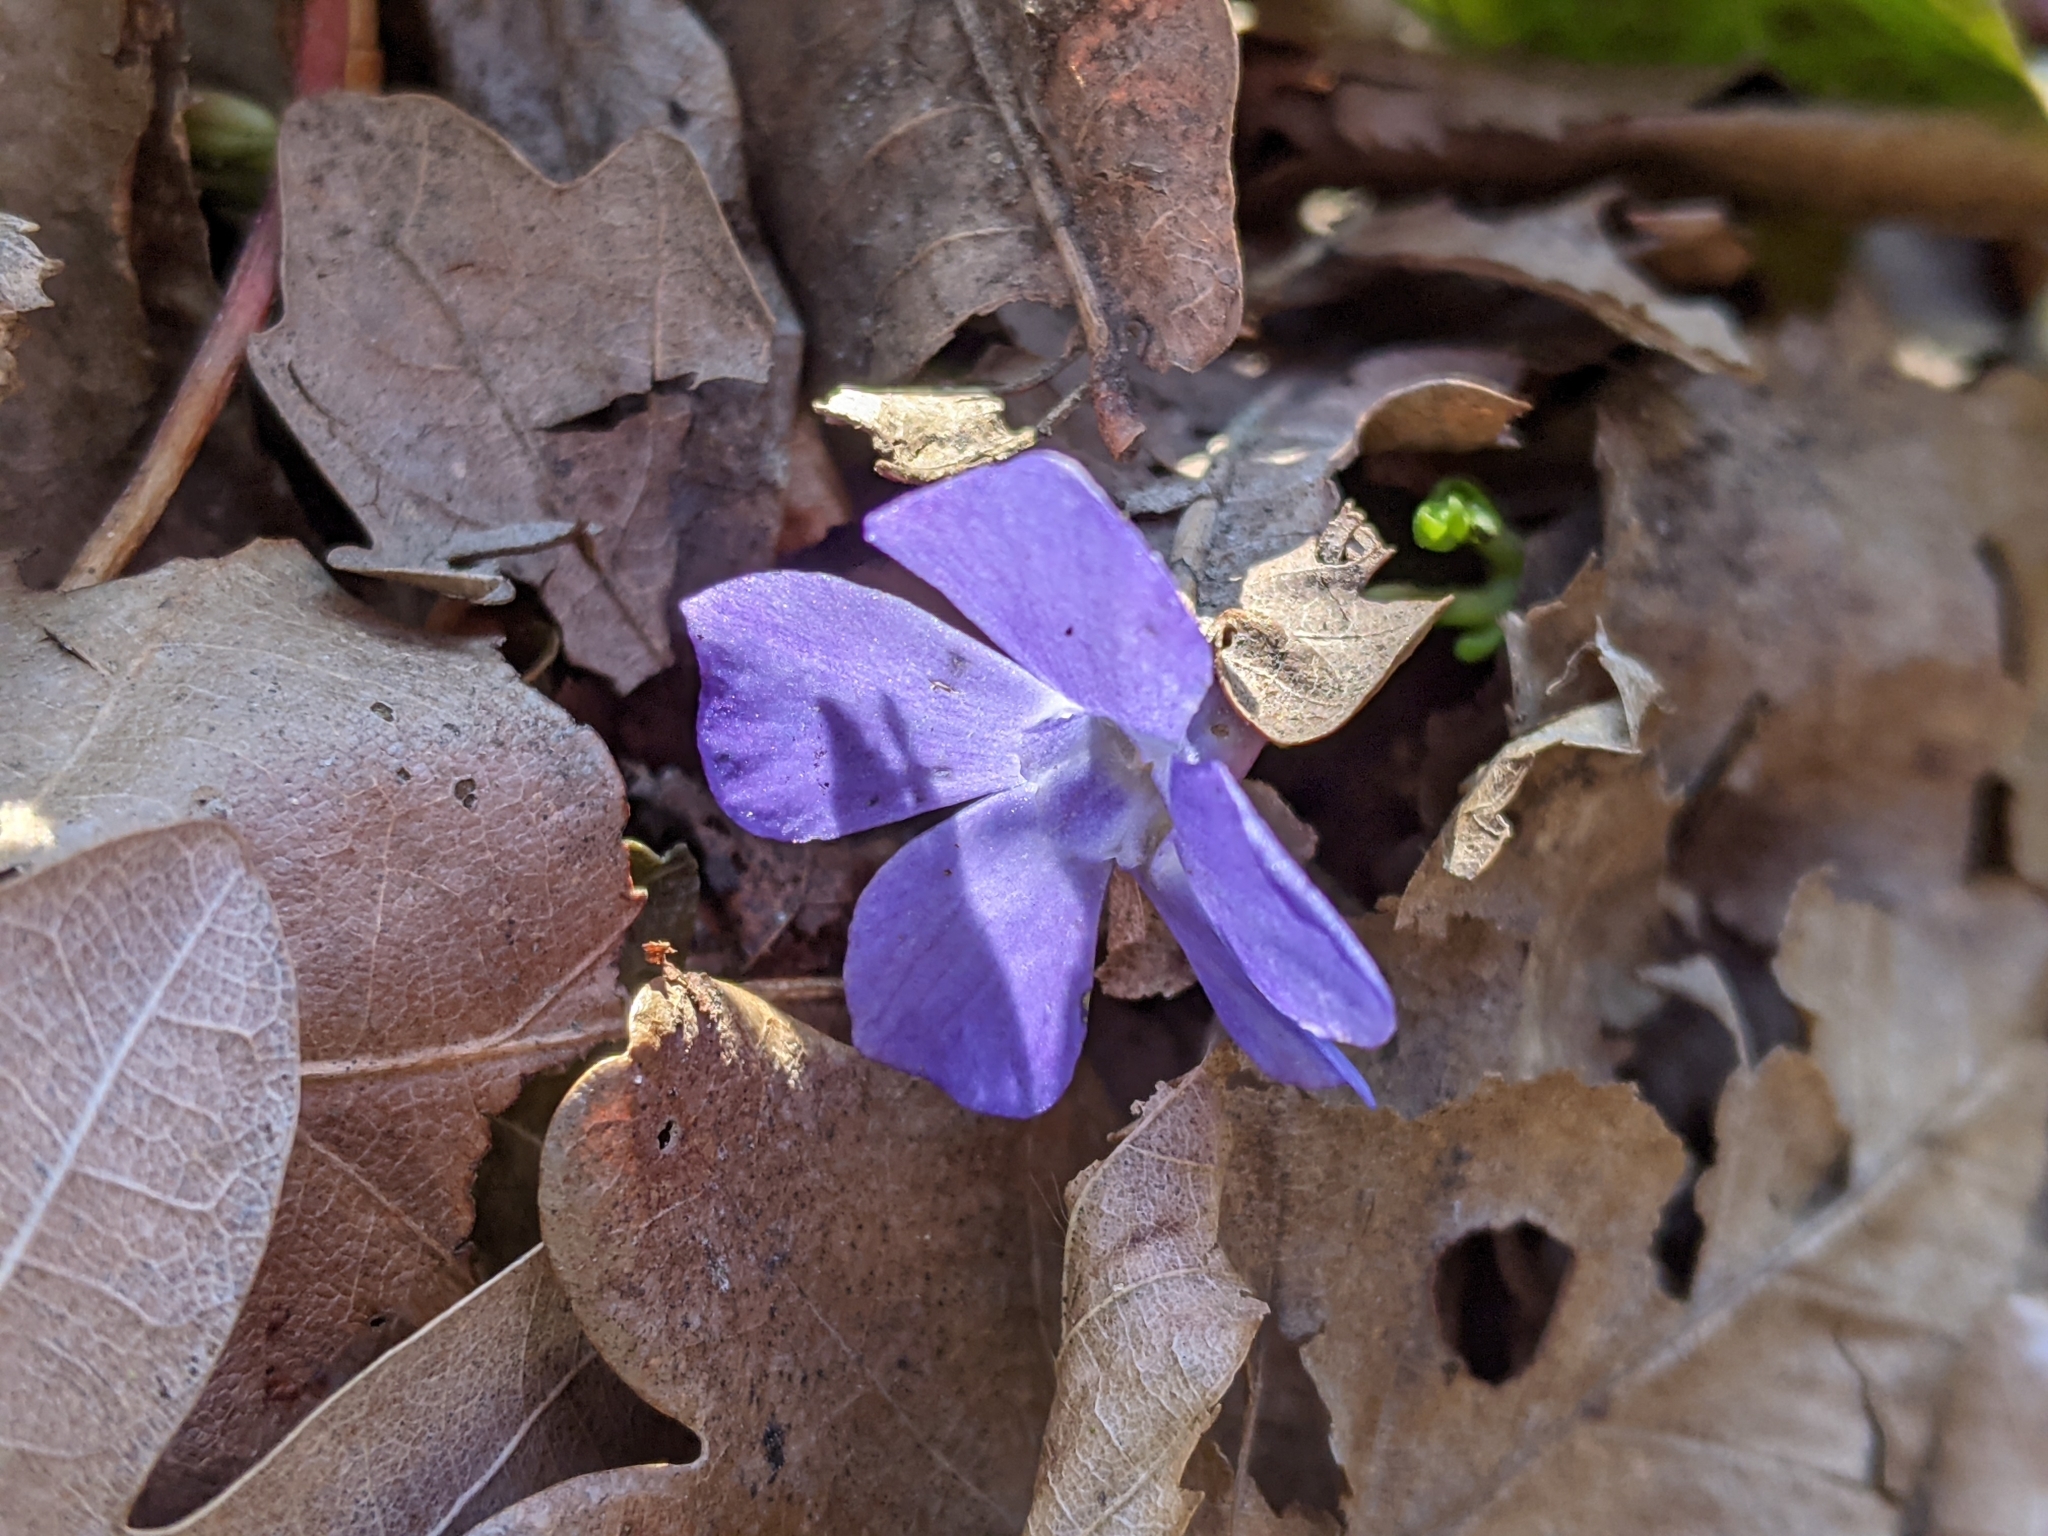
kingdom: Plantae
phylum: Tracheophyta
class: Magnoliopsida
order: Gentianales
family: Apocynaceae
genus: Vinca
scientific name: Vinca minor
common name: Lesser periwinkle
